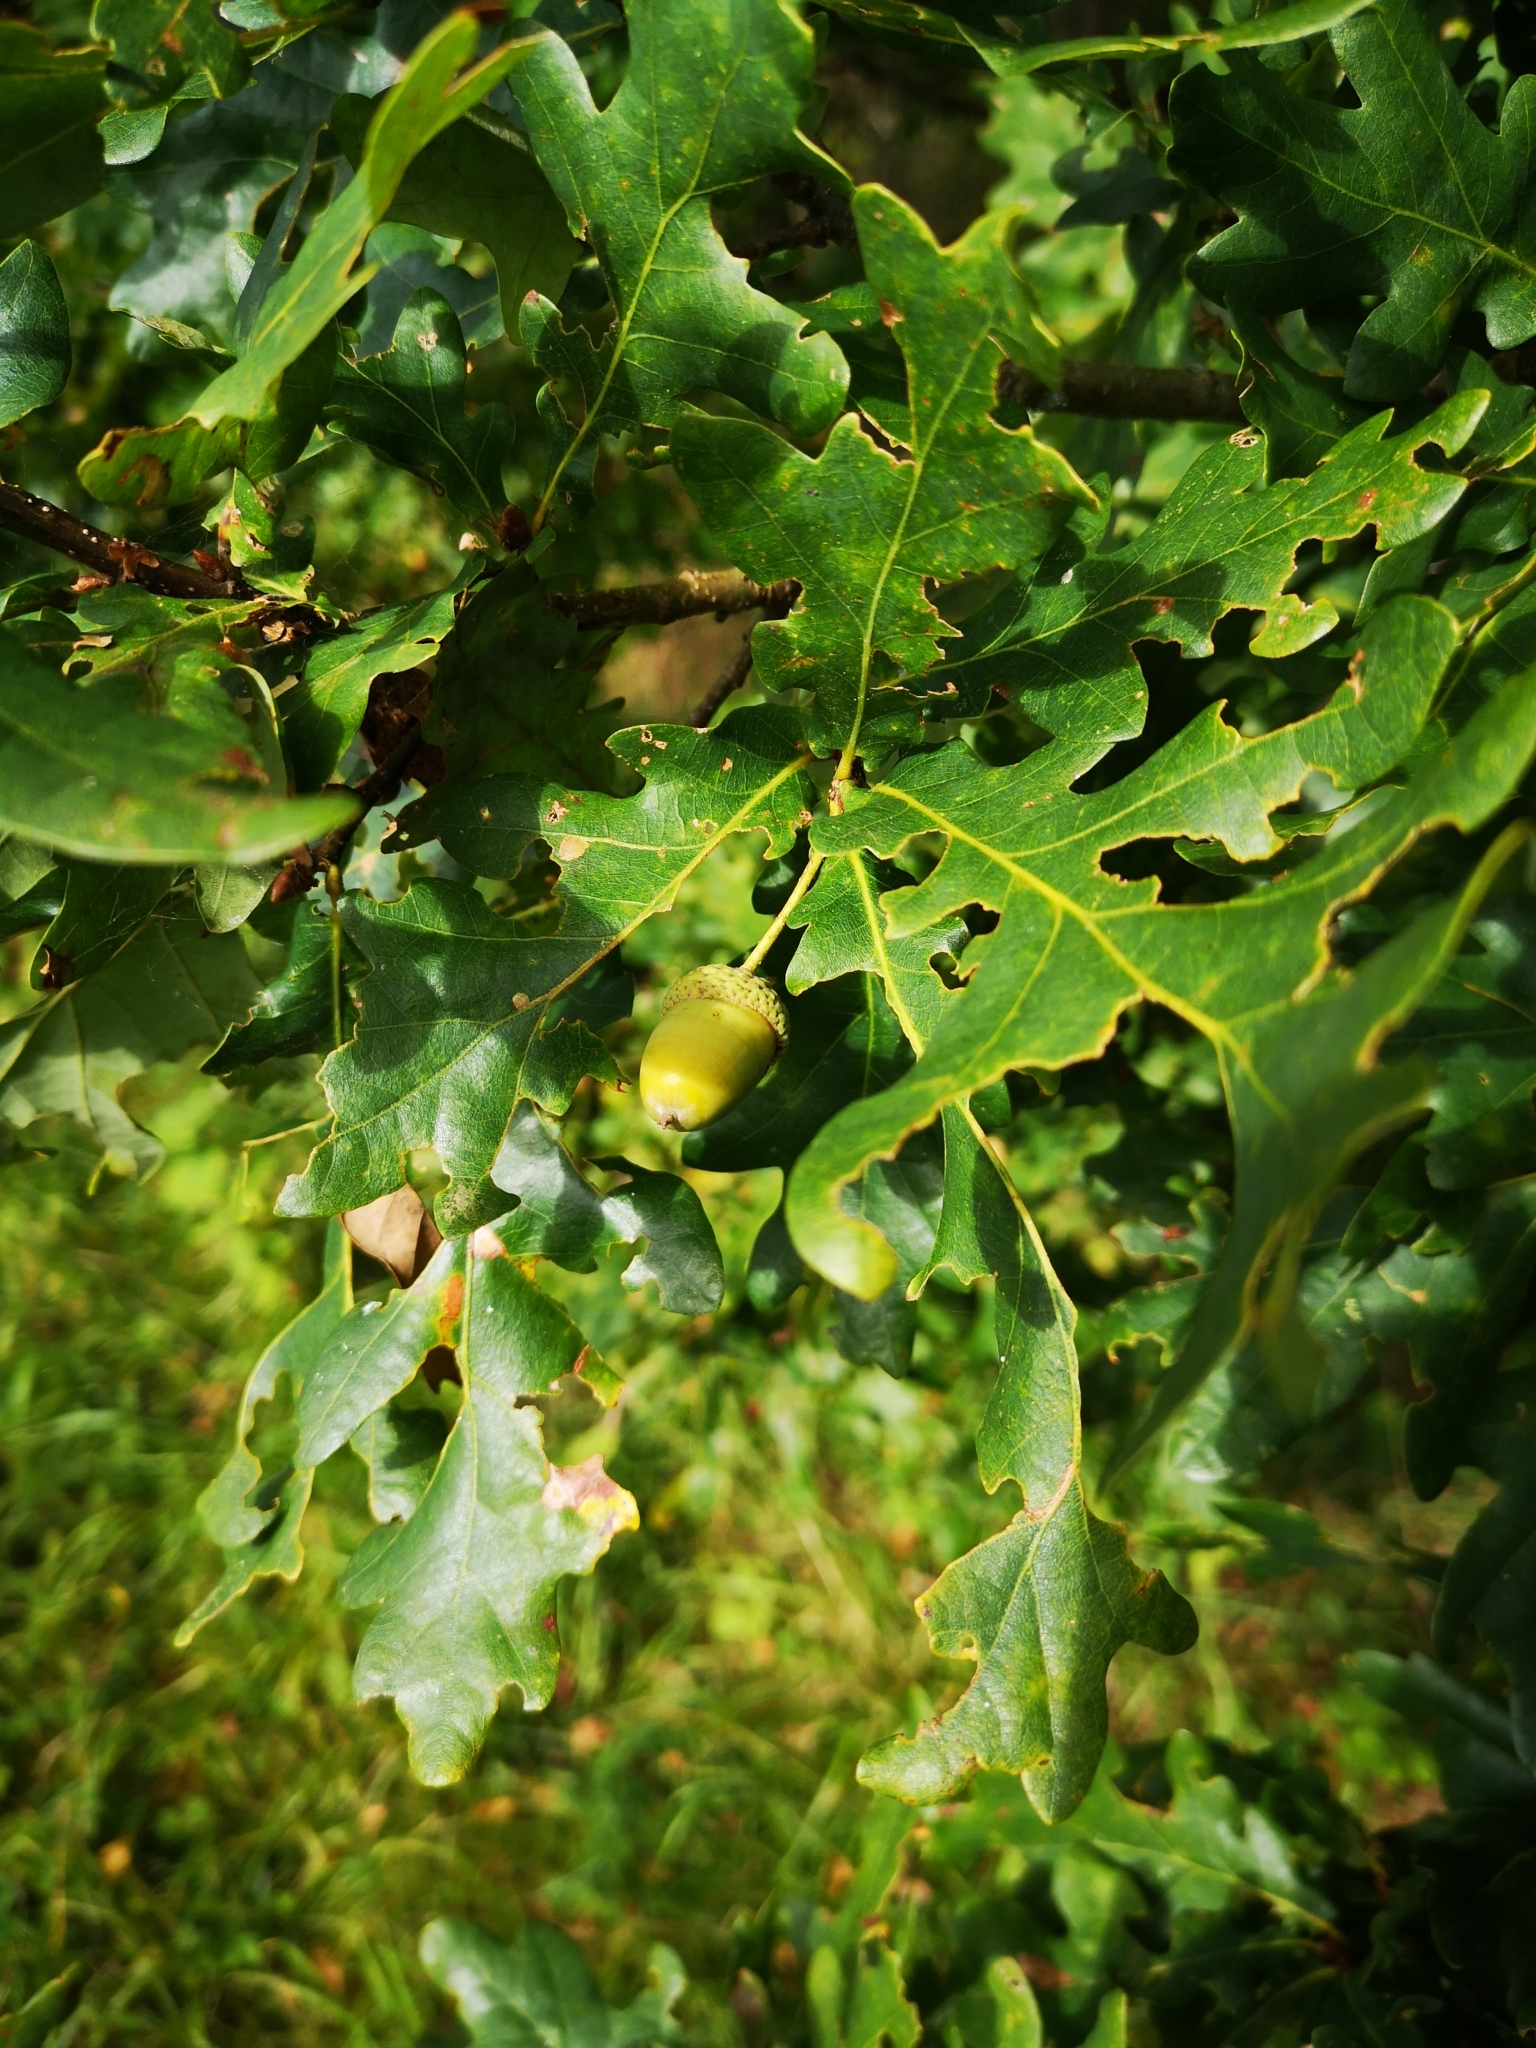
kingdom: Plantae
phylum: Tracheophyta
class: Magnoliopsida
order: Fagales
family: Fagaceae
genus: Quercus
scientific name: Quercus robur
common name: Pedunculate oak
